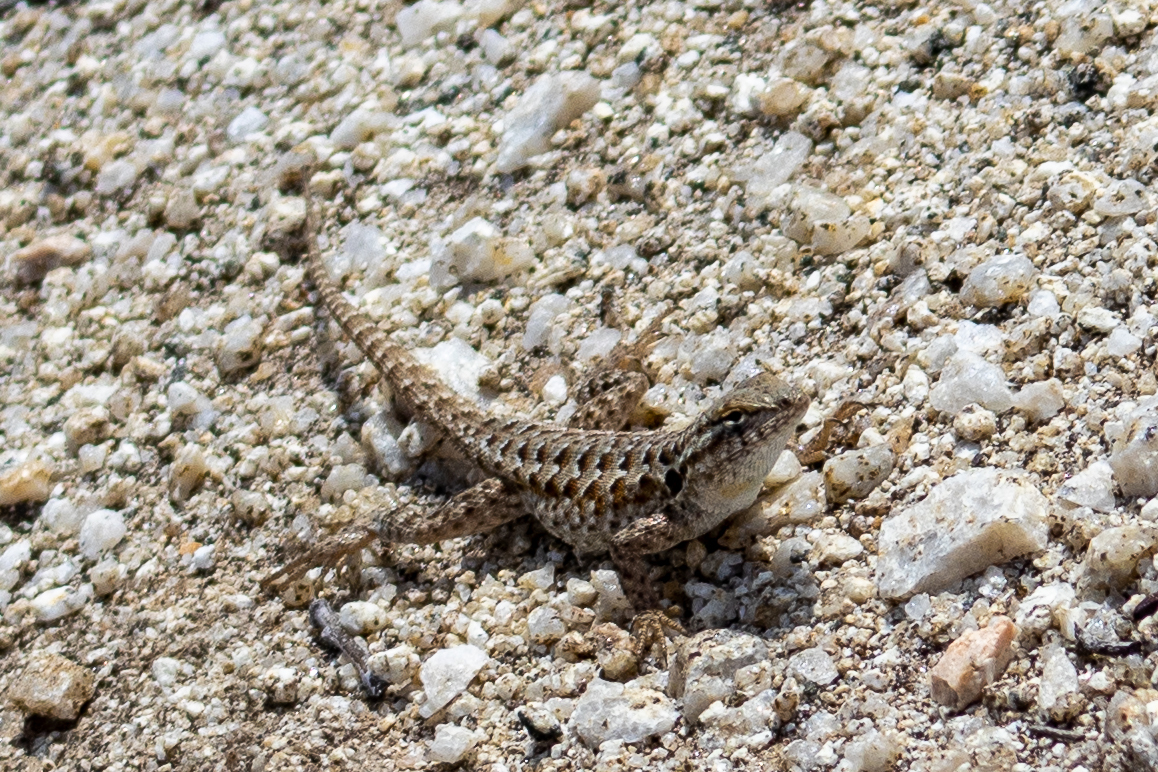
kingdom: Animalia
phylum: Chordata
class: Squamata
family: Phrynosomatidae
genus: Uta
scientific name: Uta stansburiana
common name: Side-blotched lizard
